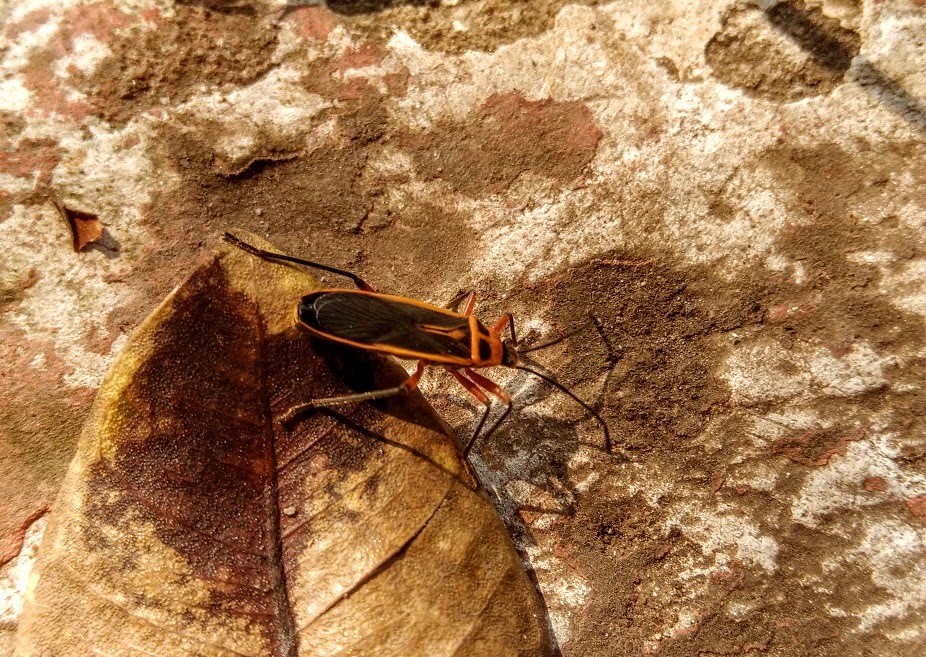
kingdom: Animalia
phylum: Arthropoda
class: Insecta
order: Hemiptera
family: Largidae
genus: Stenomacra
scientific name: Stenomacra marginella
